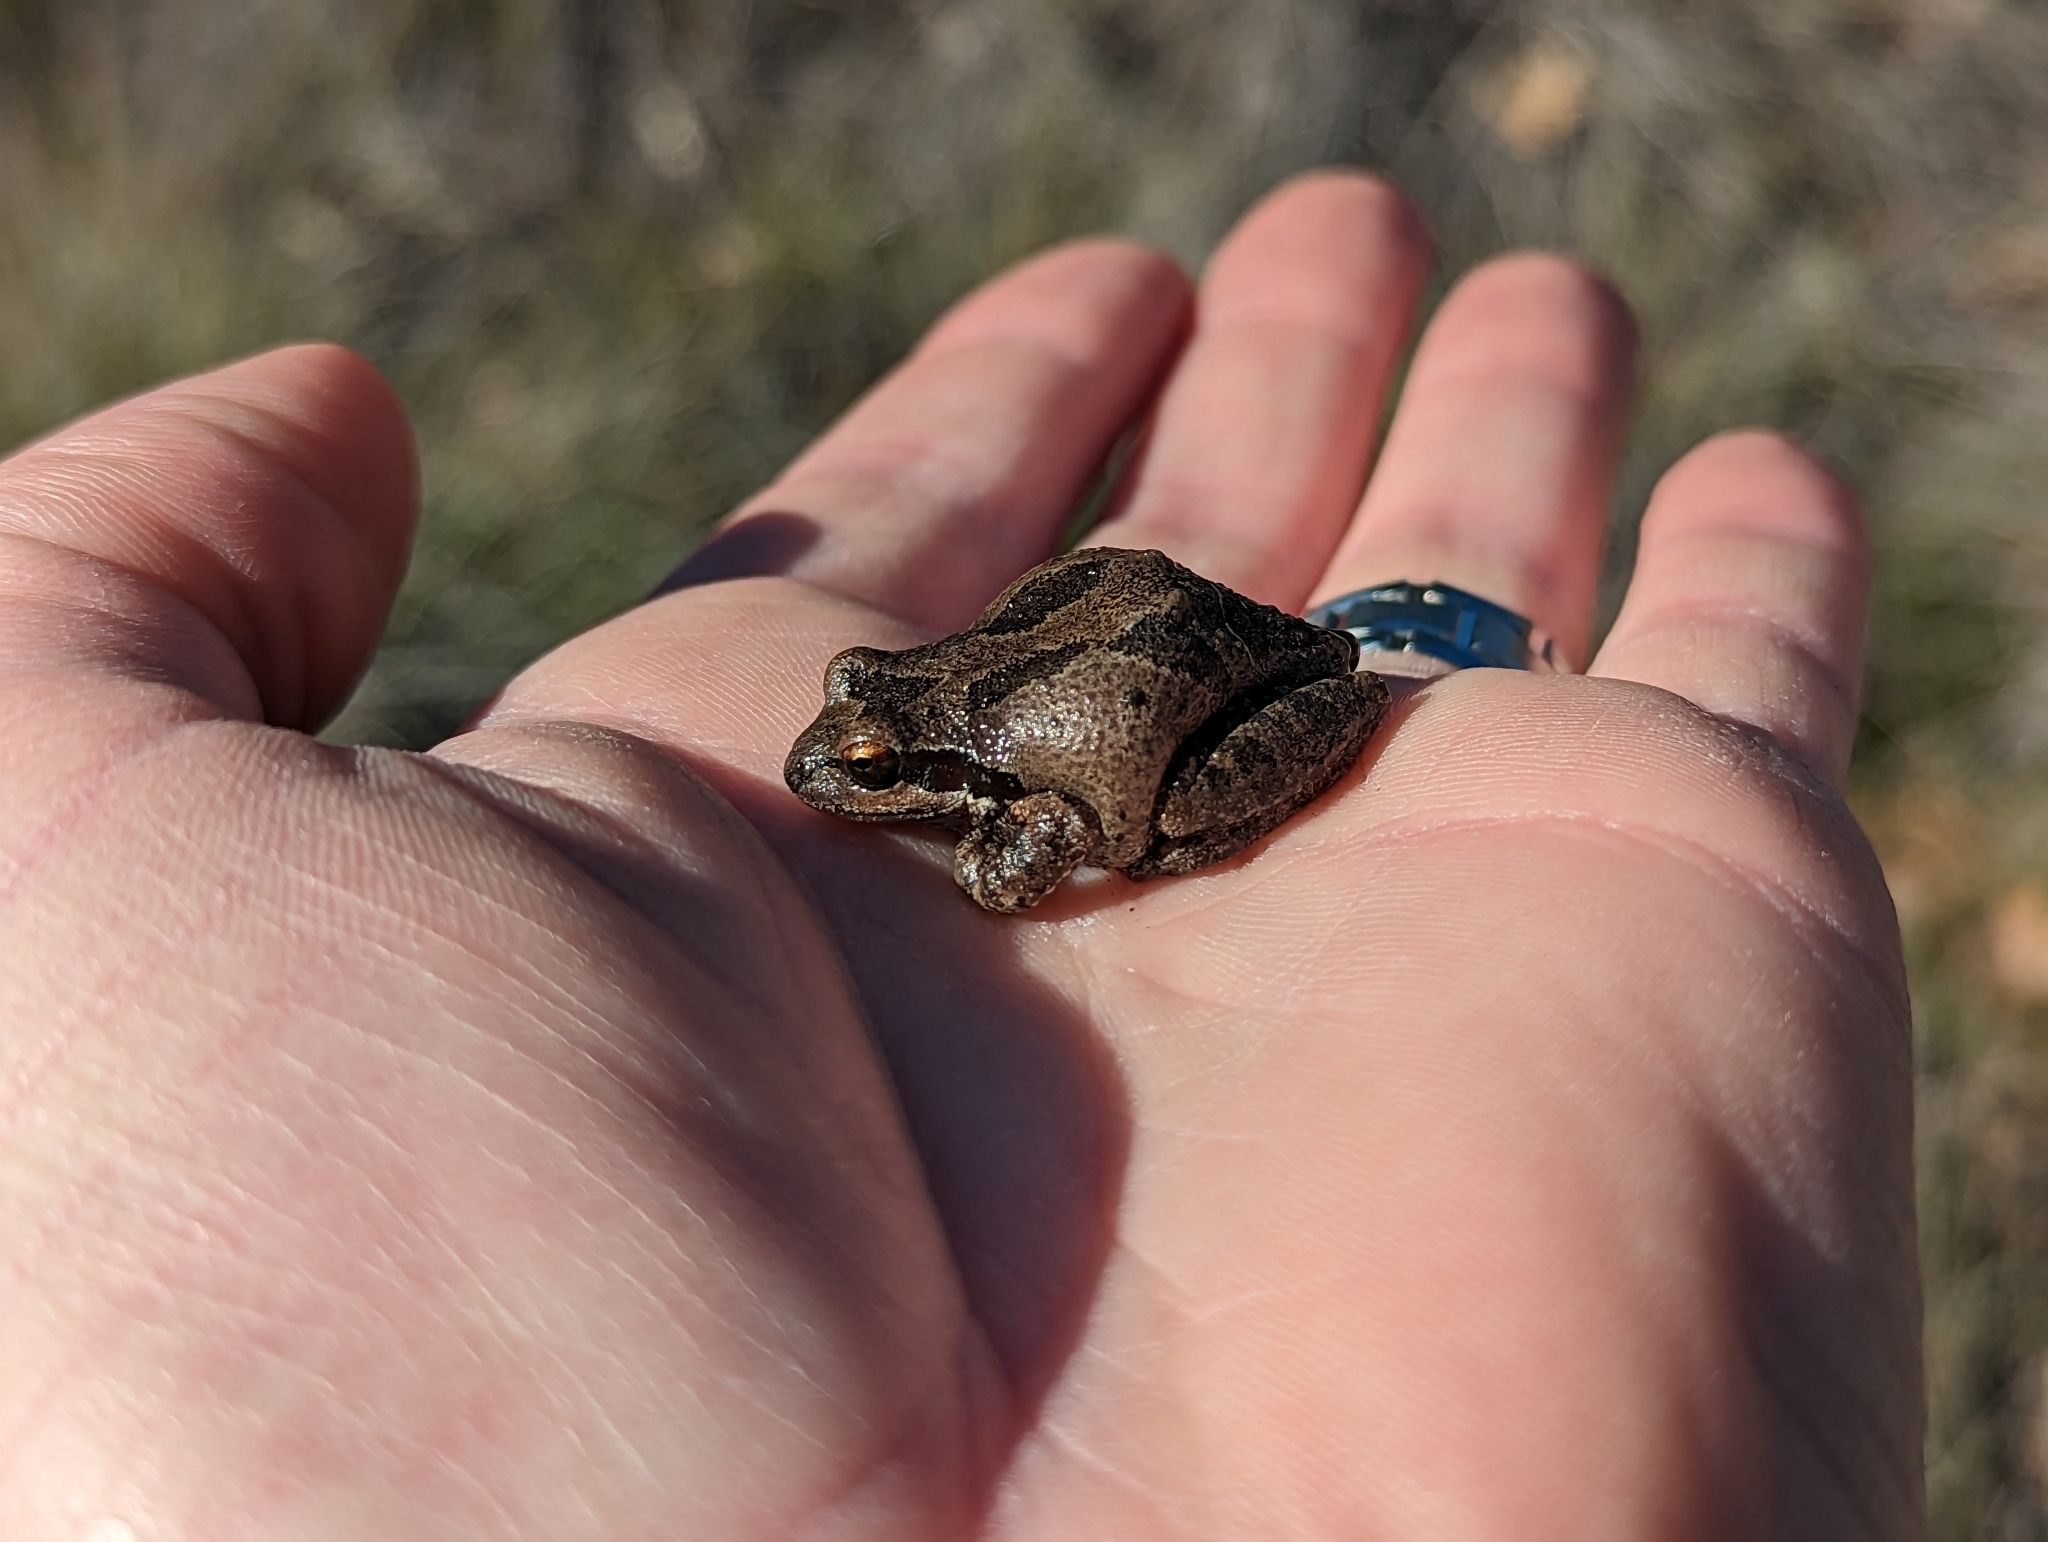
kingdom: Animalia
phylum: Chordata
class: Amphibia
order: Anura
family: Hylidae
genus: Pseudacris
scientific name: Pseudacris regilla
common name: Pacific chorus frog
